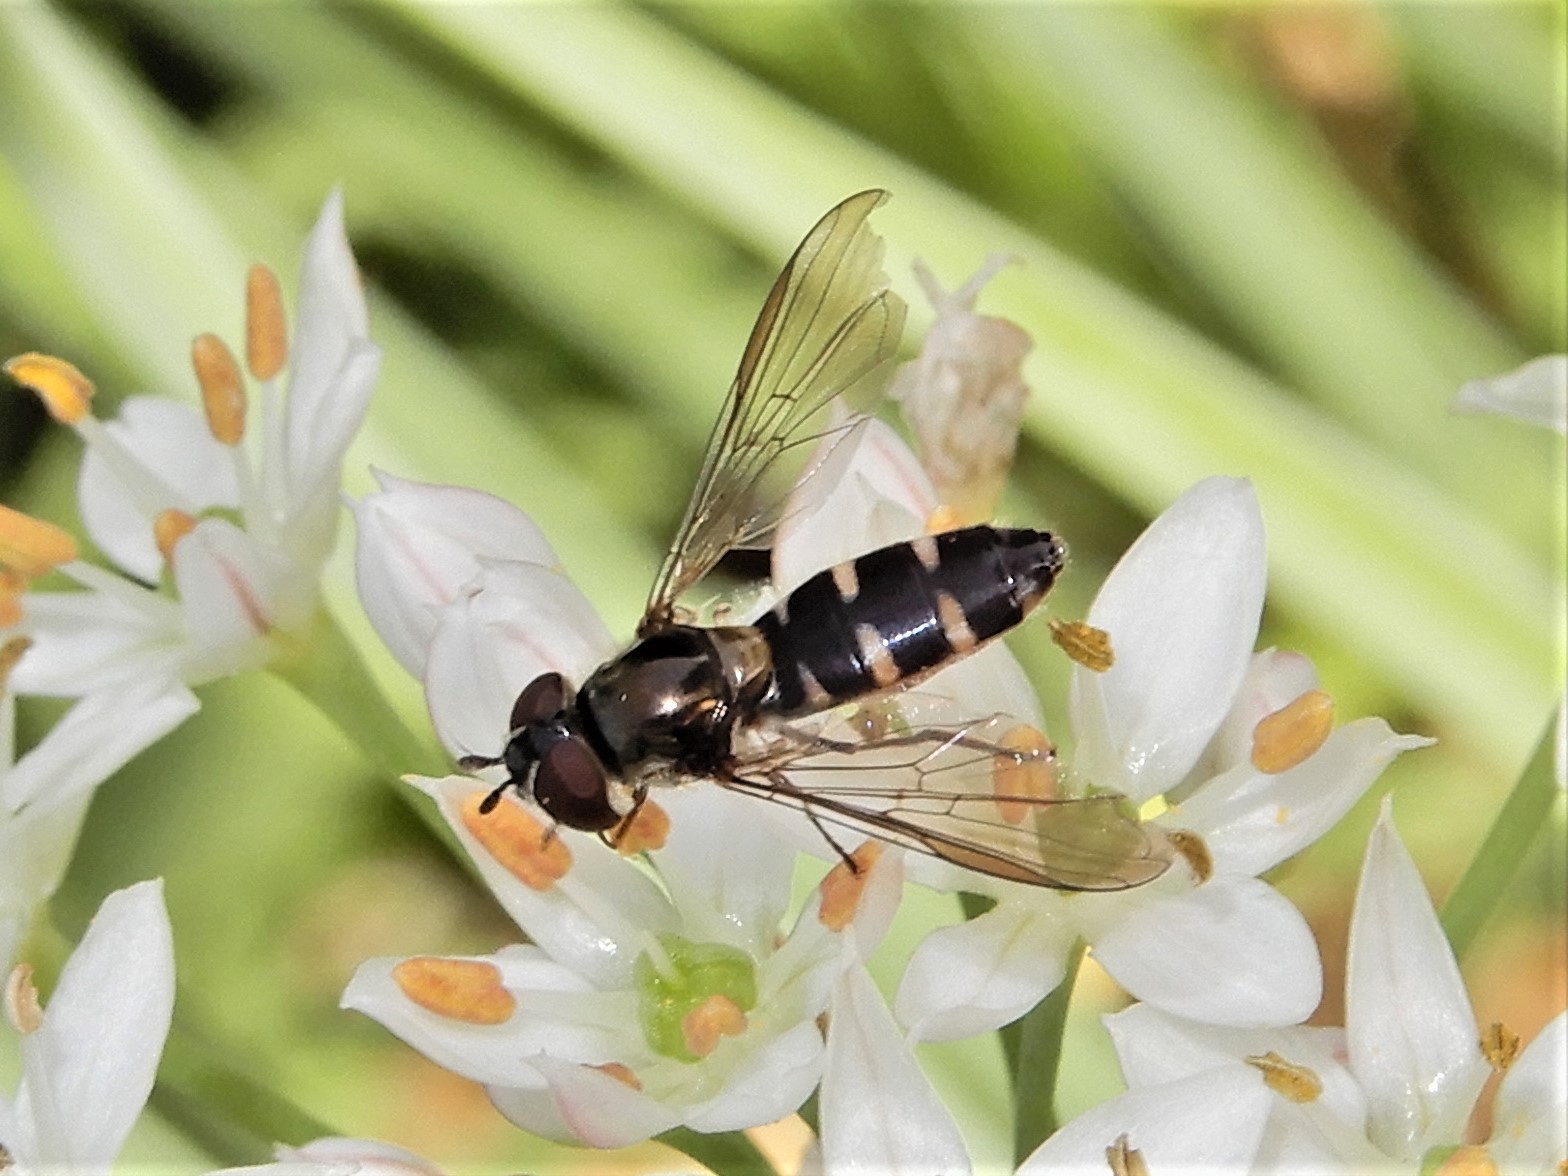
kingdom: Animalia
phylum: Arthropoda
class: Insecta
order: Diptera
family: Syrphidae
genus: Melangyna
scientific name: Melangyna novaezelandiae
